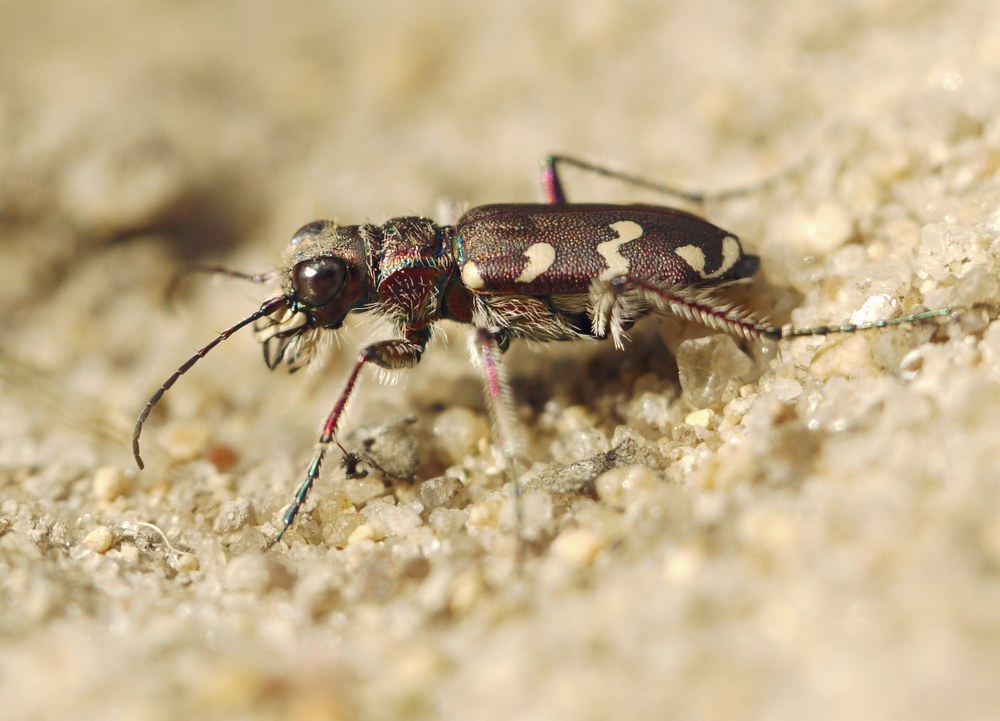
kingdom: Animalia
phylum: Arthropoda
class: Insecta
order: Coleoptera
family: Carabidae
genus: Cicindela
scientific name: Cicindela soluta
